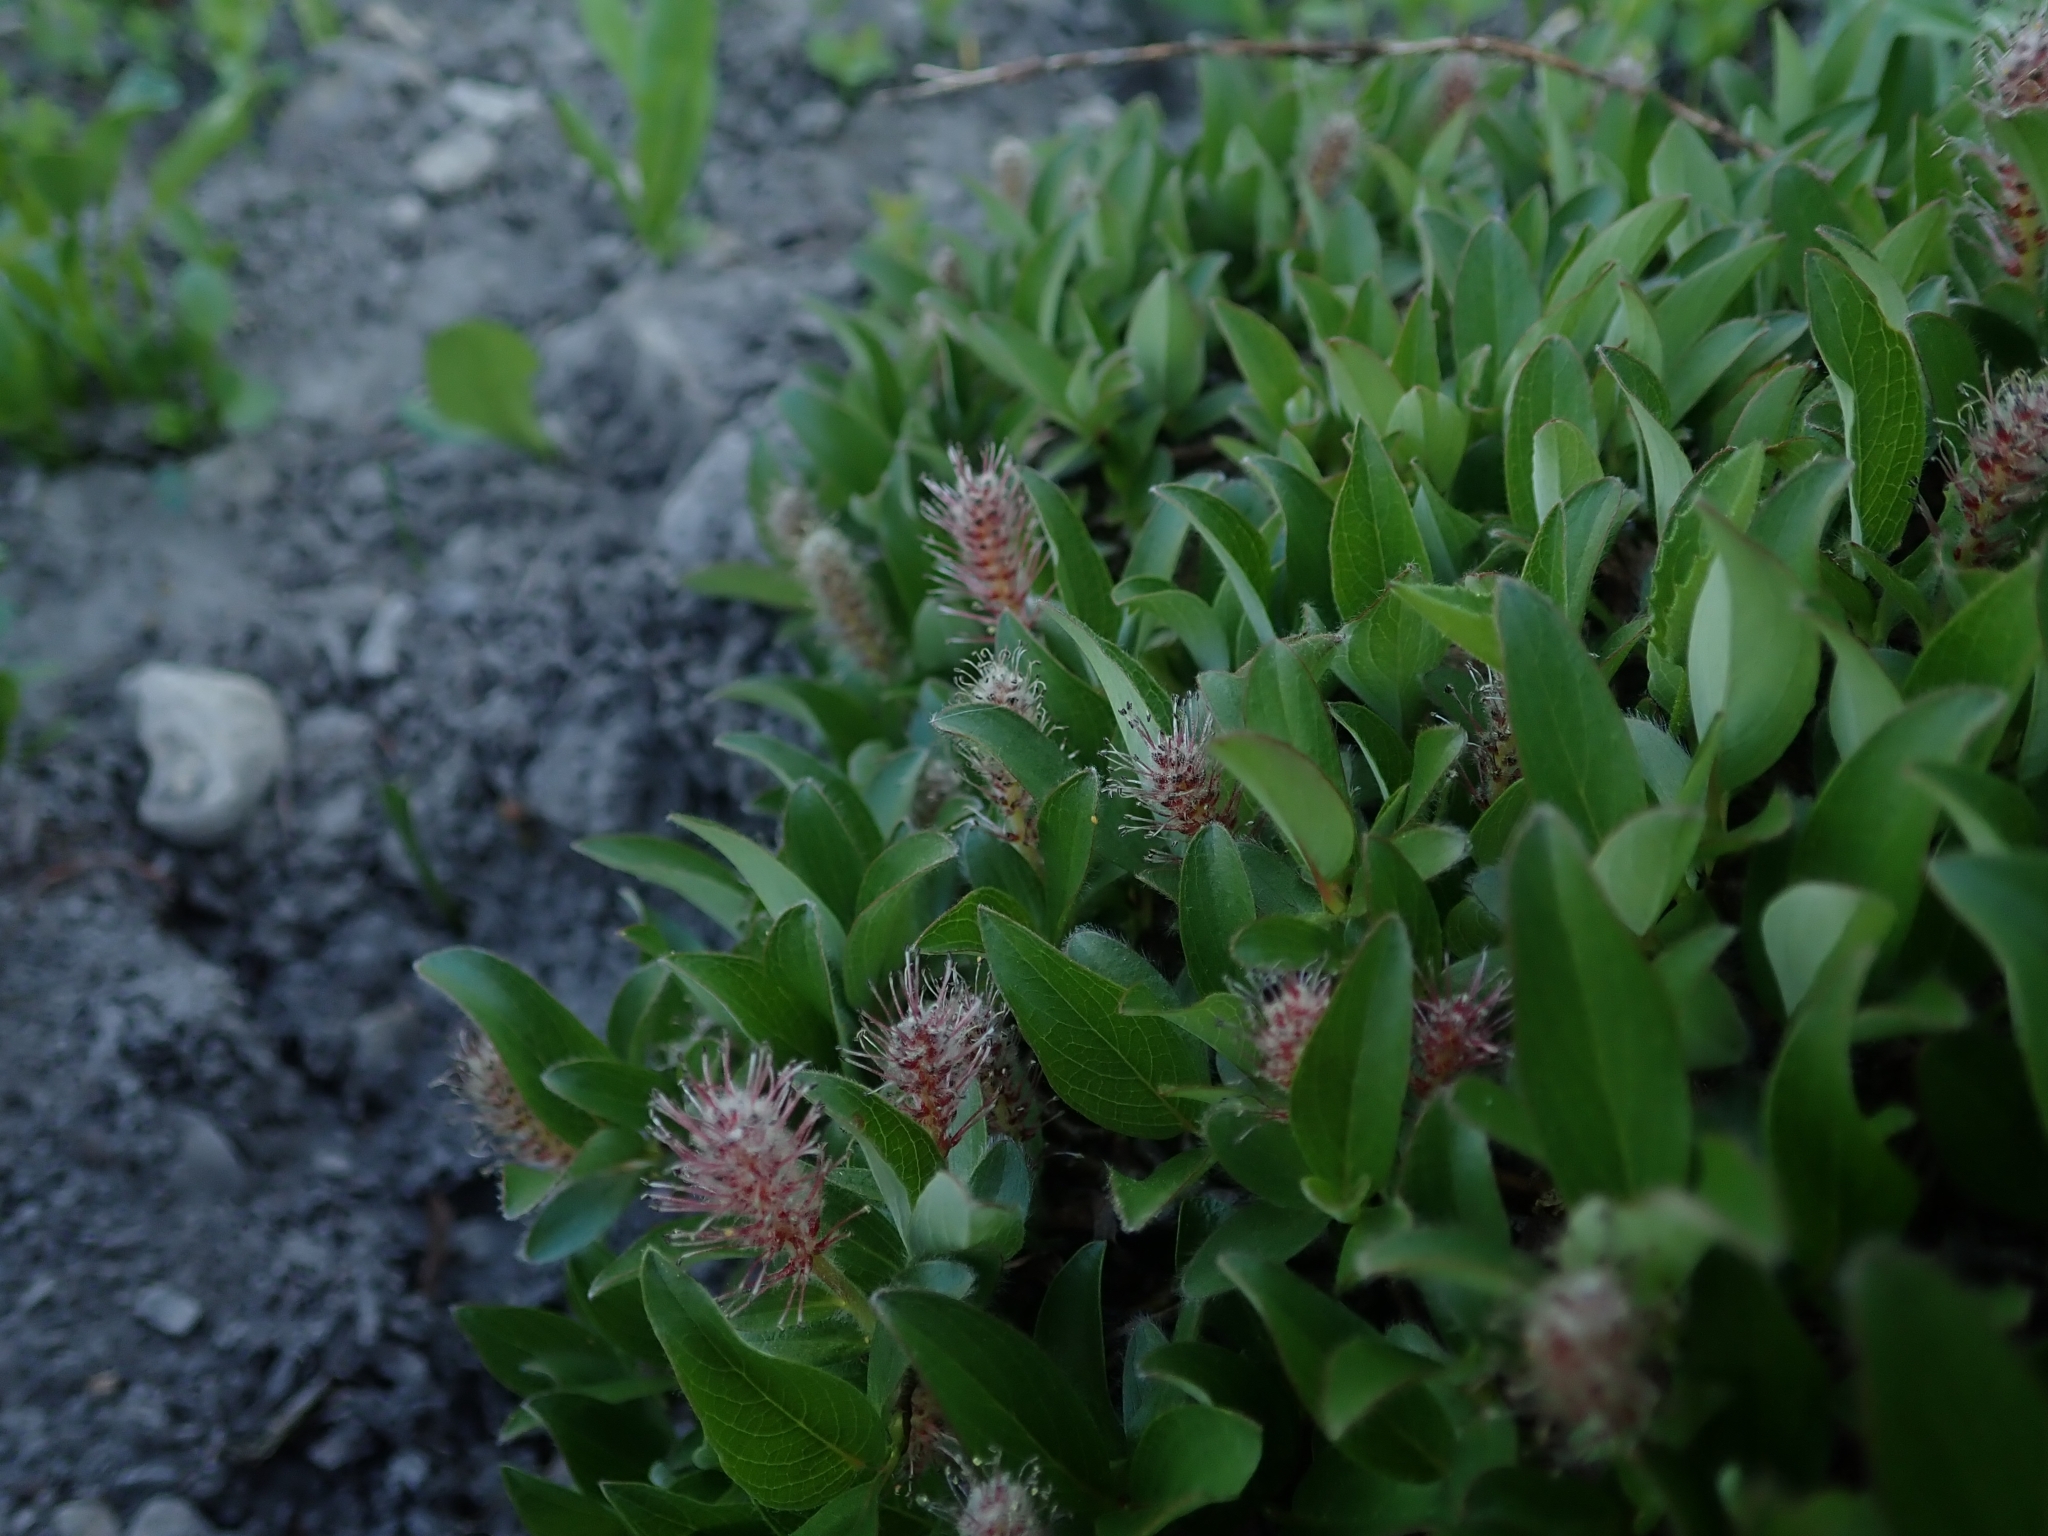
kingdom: Plantae
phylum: Tracheophyta
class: Magnoliopsida
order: Malpighiales
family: Salicaceae
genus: Salix
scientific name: Salix petrophila
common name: Rocky mountain willow
